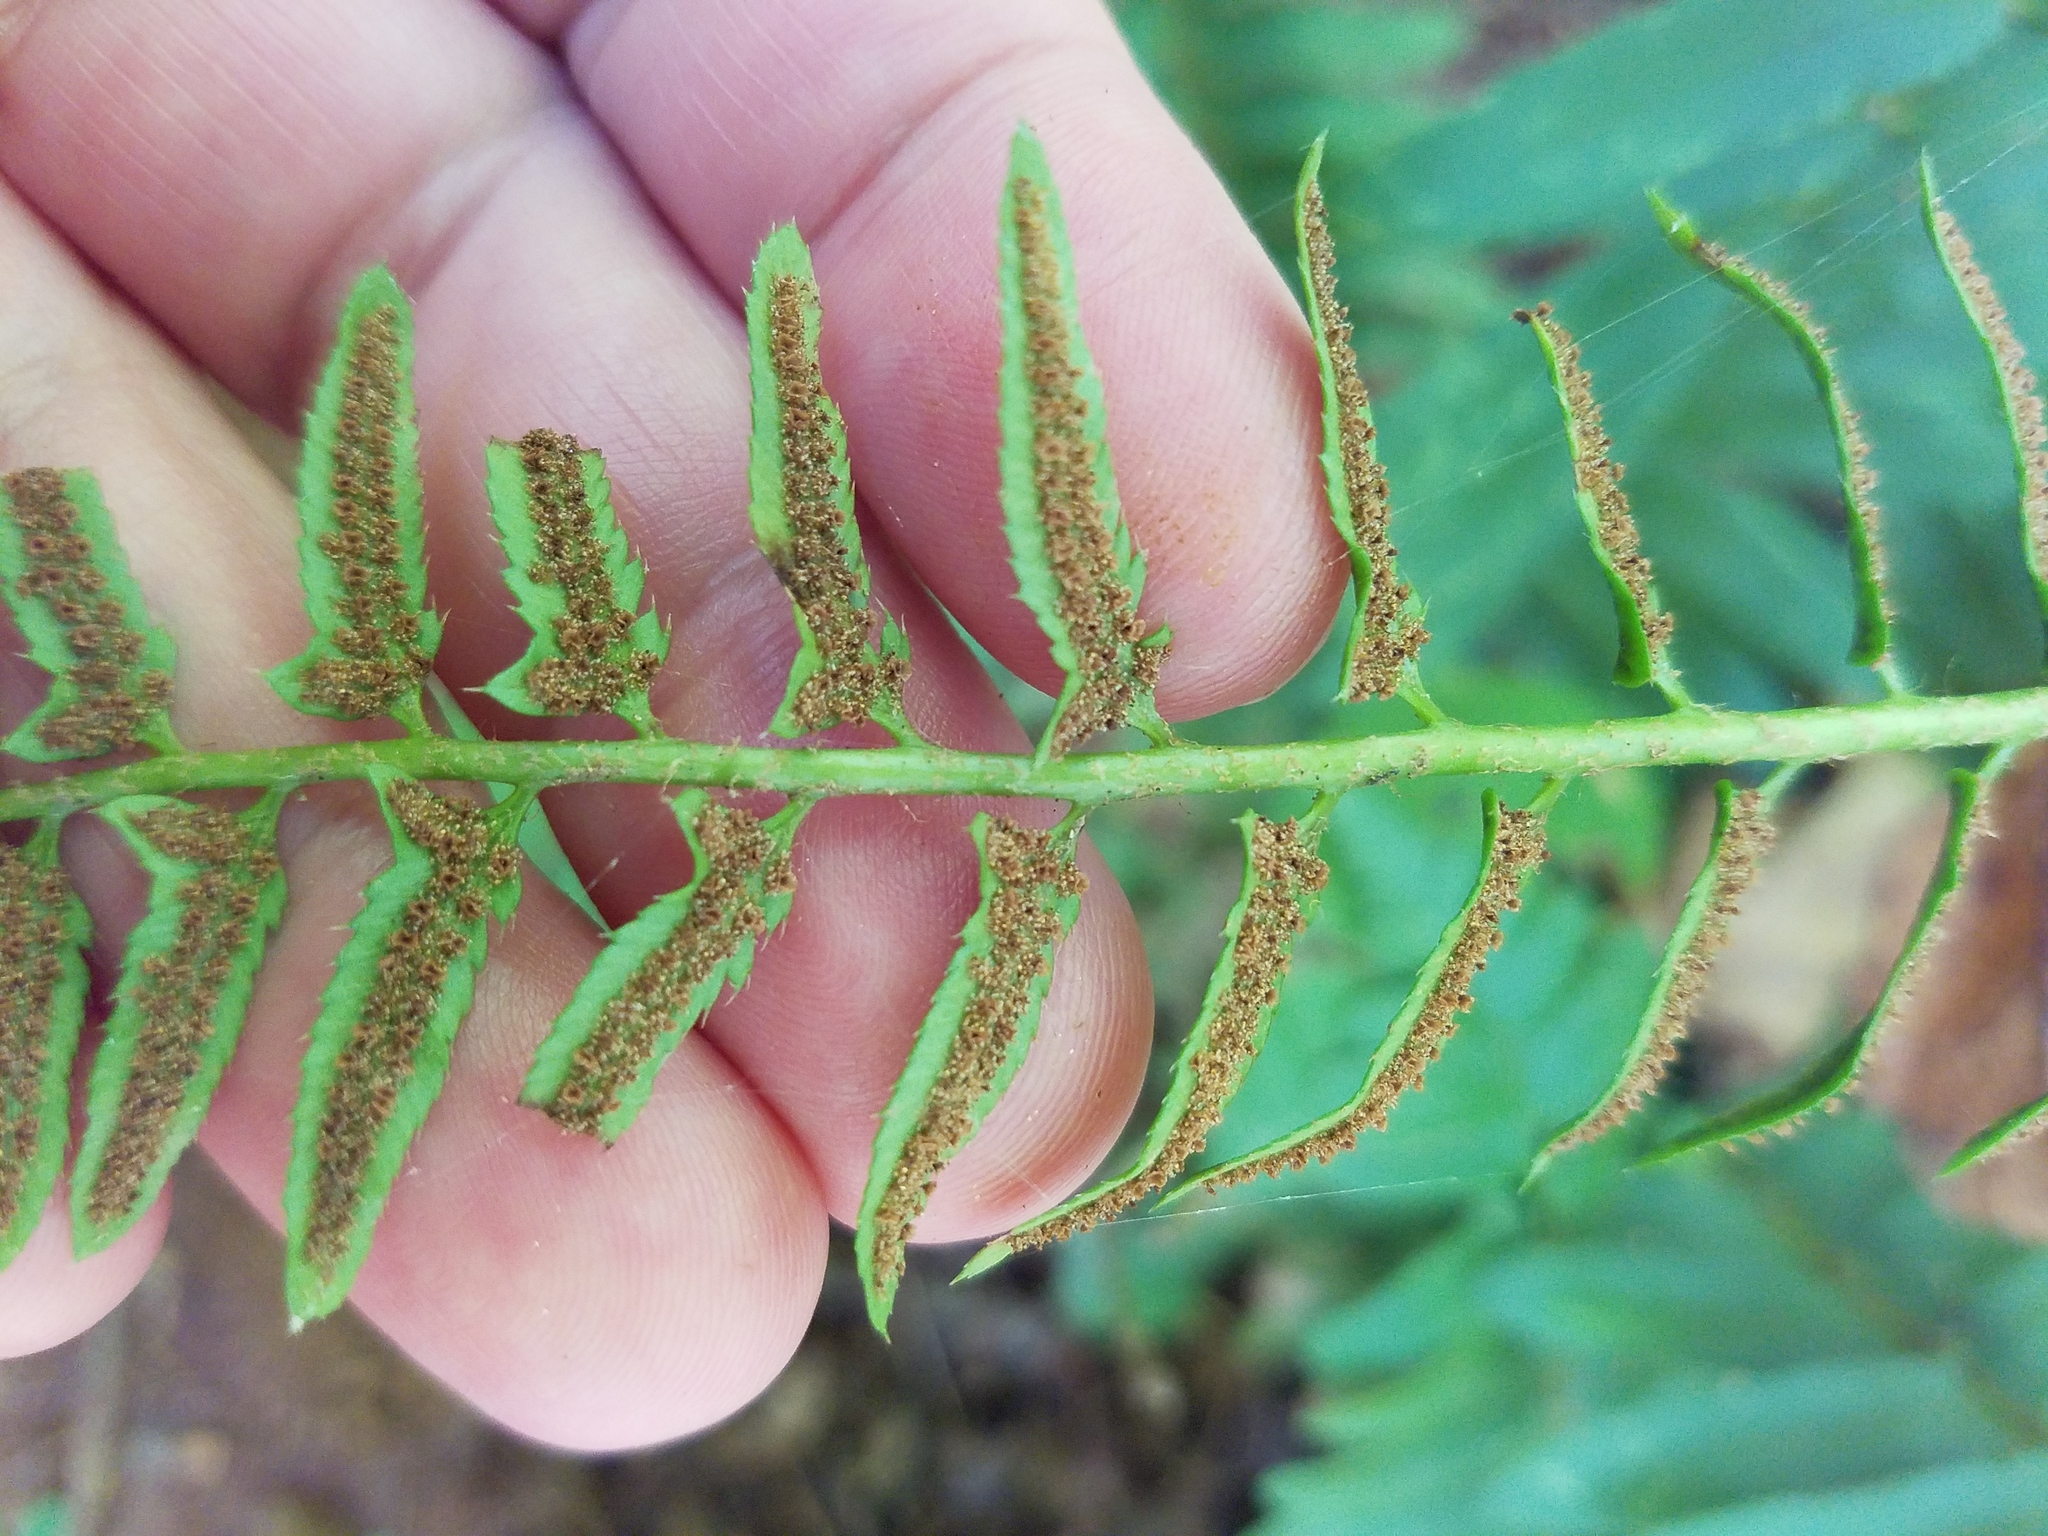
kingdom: Plantae
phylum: Tracheophyta
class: Polypodiopsida
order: Polypodiales
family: Dryopteridaceae
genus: Polystichum
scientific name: Polystichum acrostichoides
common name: Christmas fern
